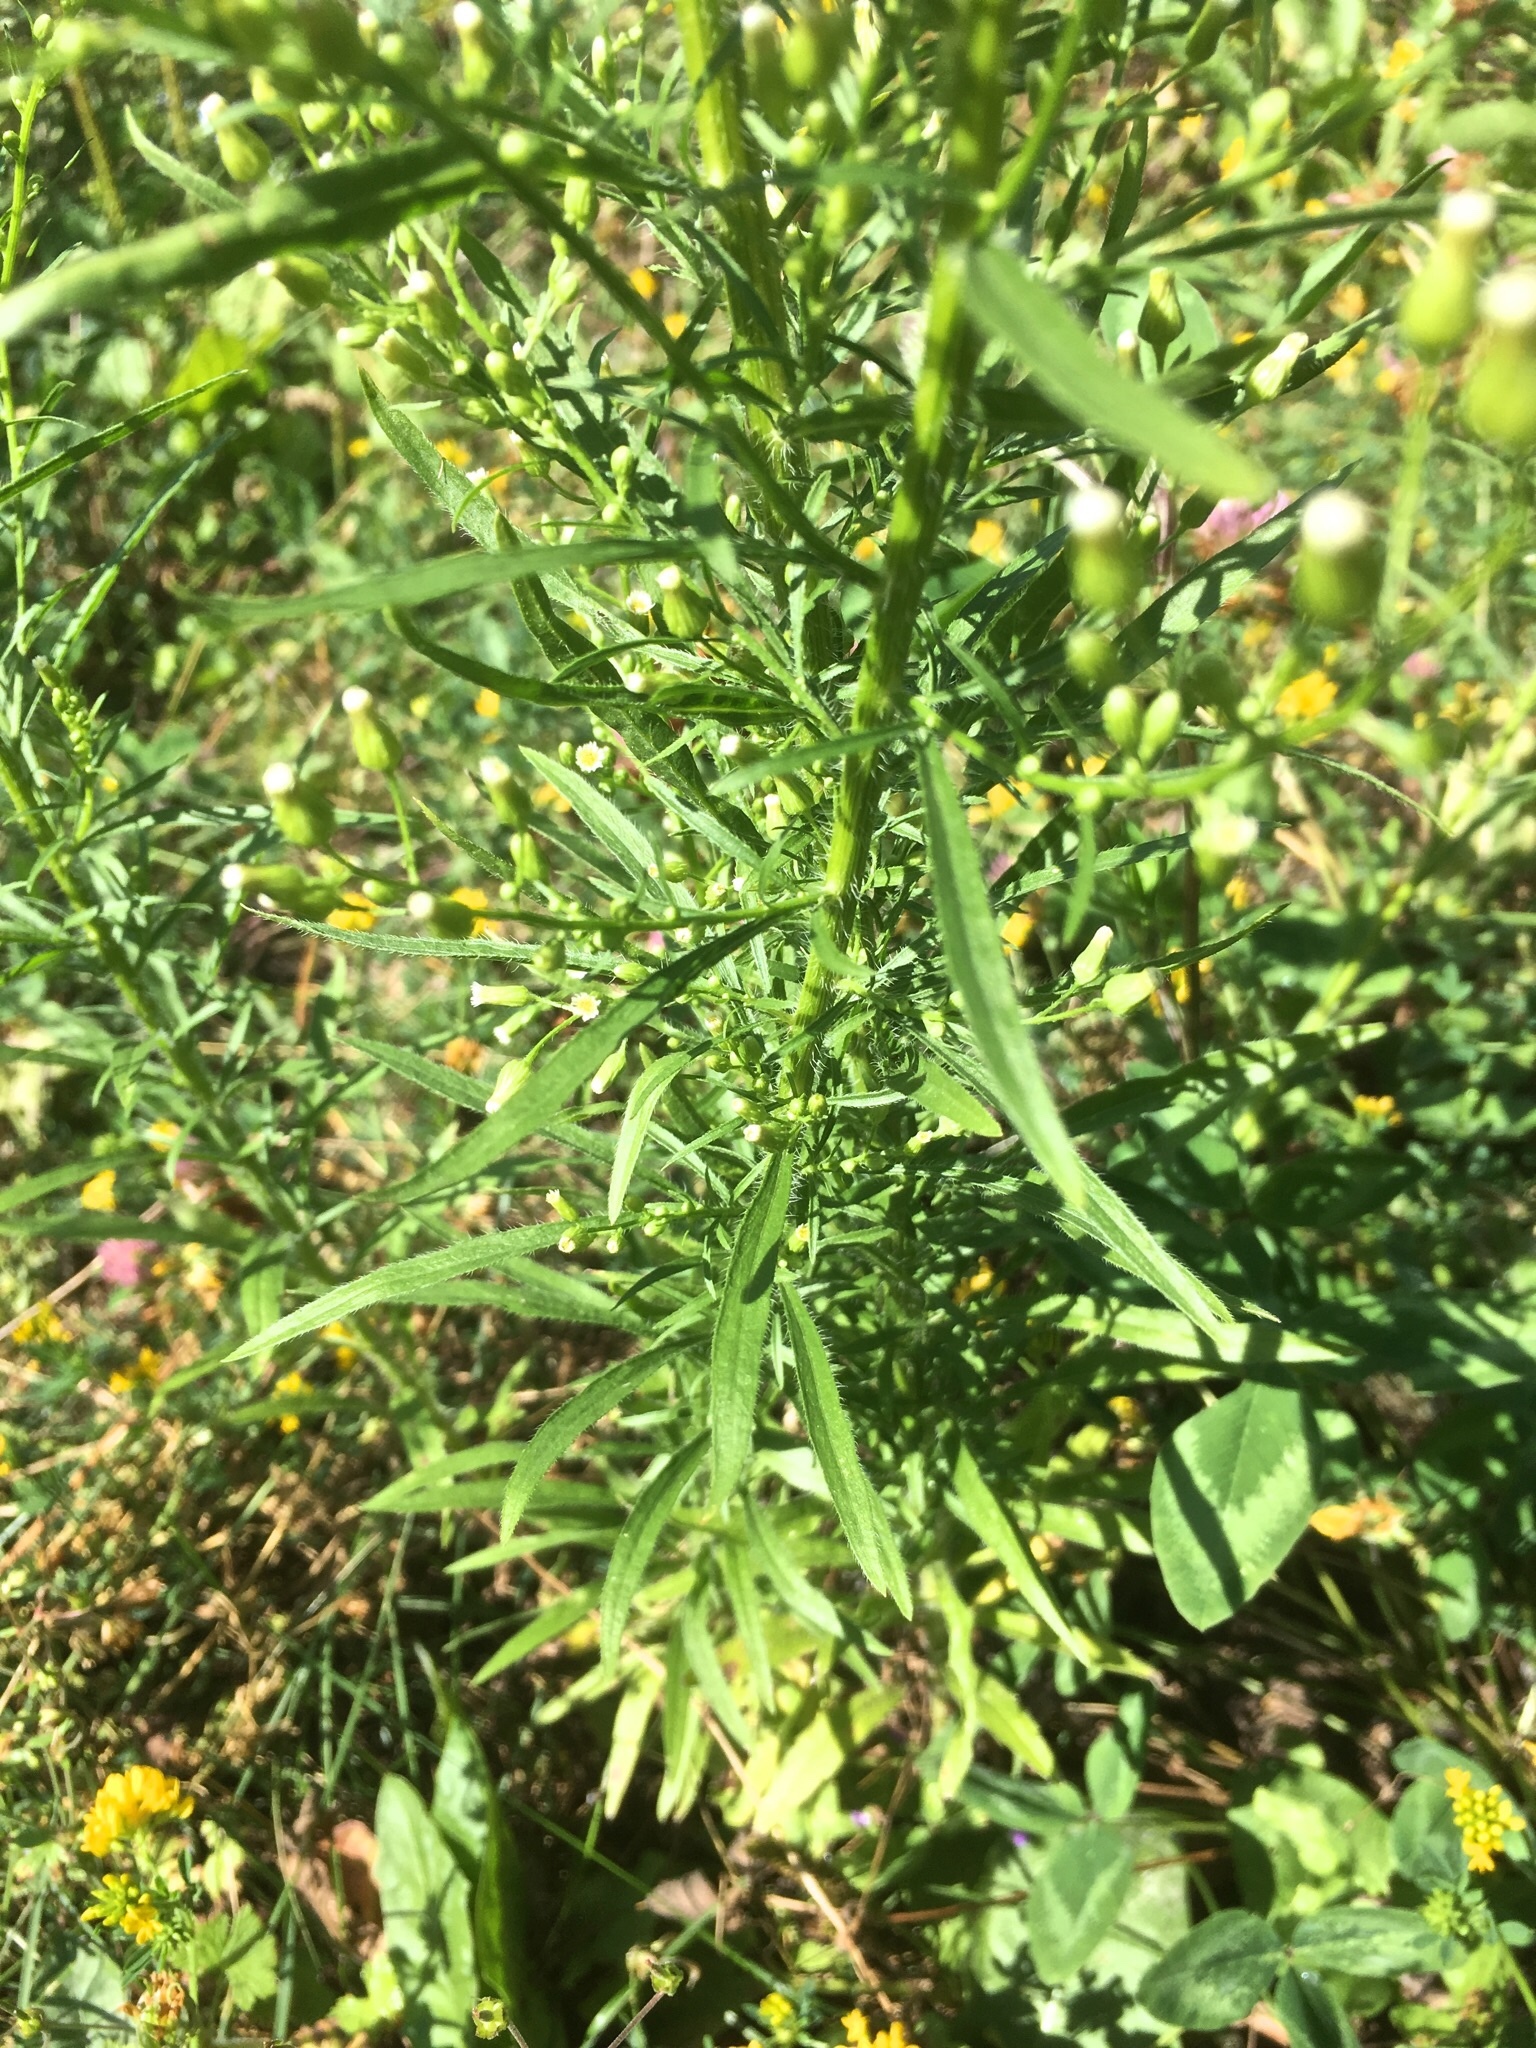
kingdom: Plantae
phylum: Tracheophyta
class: Magnoliopsida
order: Asterales
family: Asteraceae
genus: Erigeron
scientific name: Erigeron canadensis
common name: Canadian fleabane
